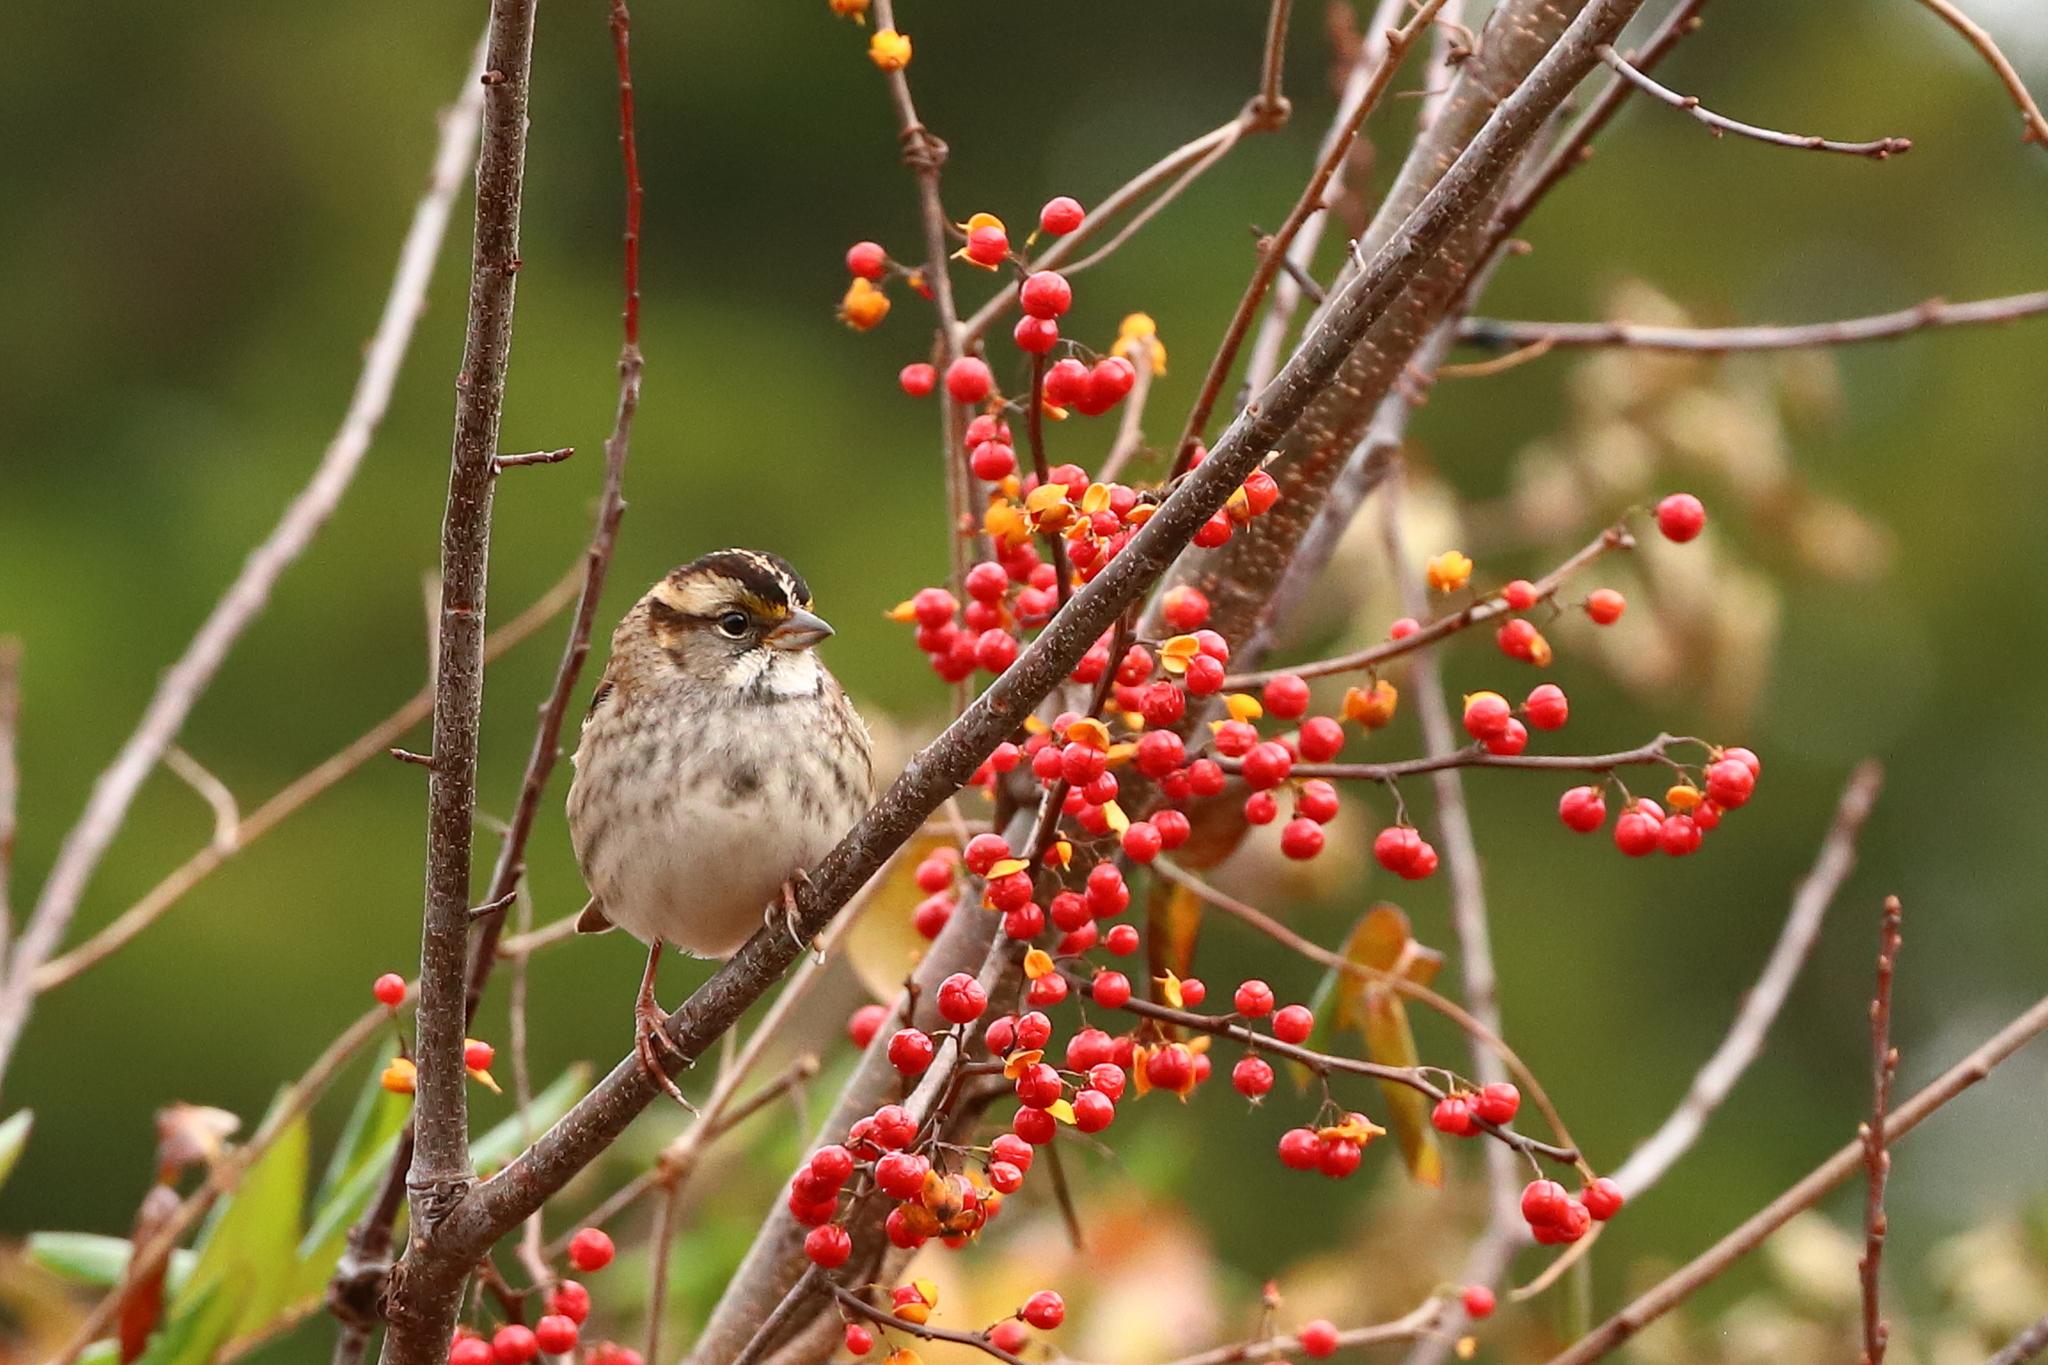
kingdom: Animalia
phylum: Chordata
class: Aves
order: Passeriformes
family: Passerellidae
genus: Zonotrichia
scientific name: Zonotrichia albicollis
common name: White-throated sparrow
